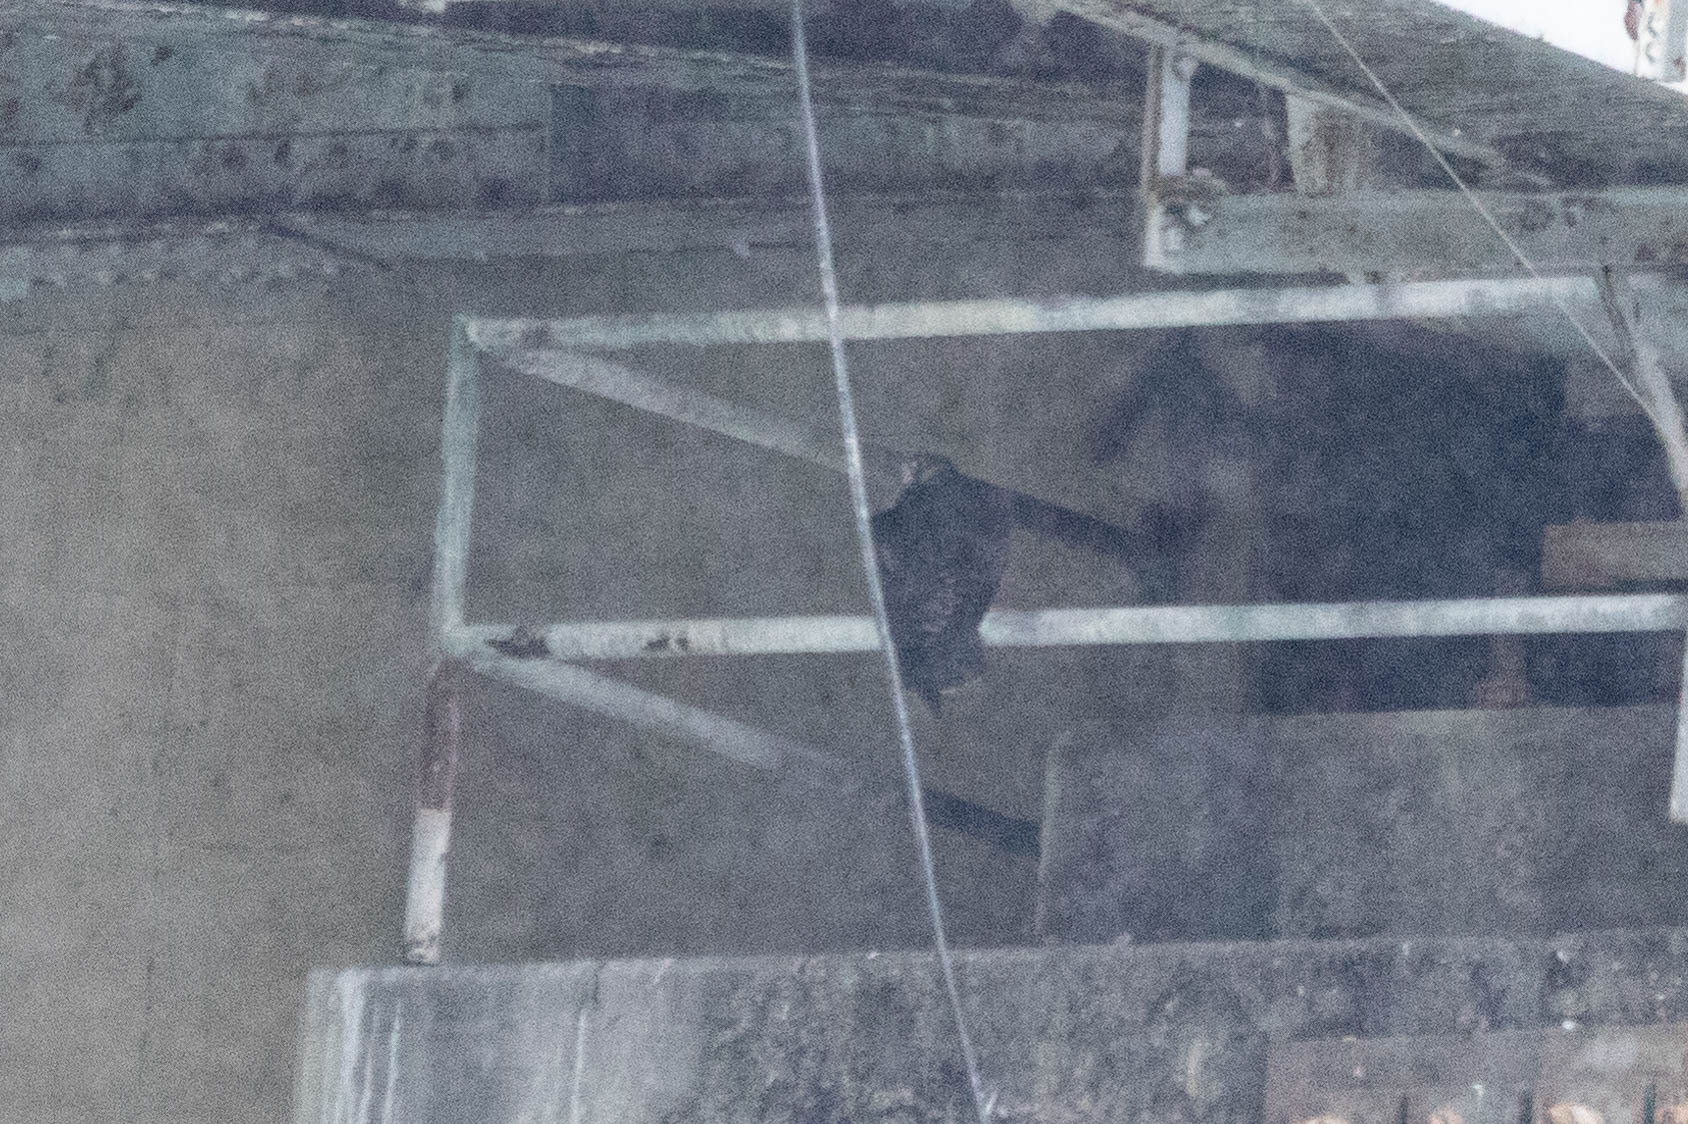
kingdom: Animalia
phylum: Chordata
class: Aves
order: Falconiformes
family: Falconidae
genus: Falco
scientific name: Falco peregrinus
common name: Peregrine falcon
